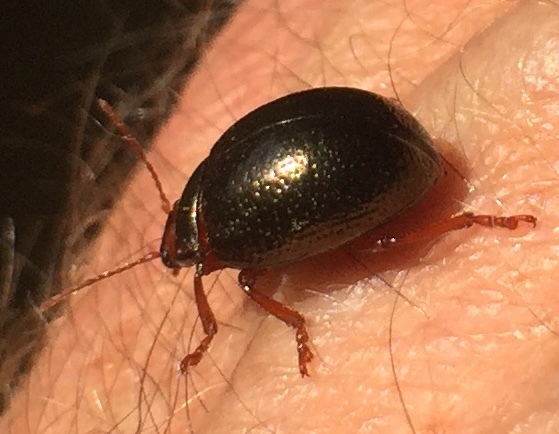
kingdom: Animalia
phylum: Arthropoda
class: Insecta
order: Coleoptera
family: Chrysomelidae
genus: Chrysolina
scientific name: Chrysolina bankii
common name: Leaf beetle
